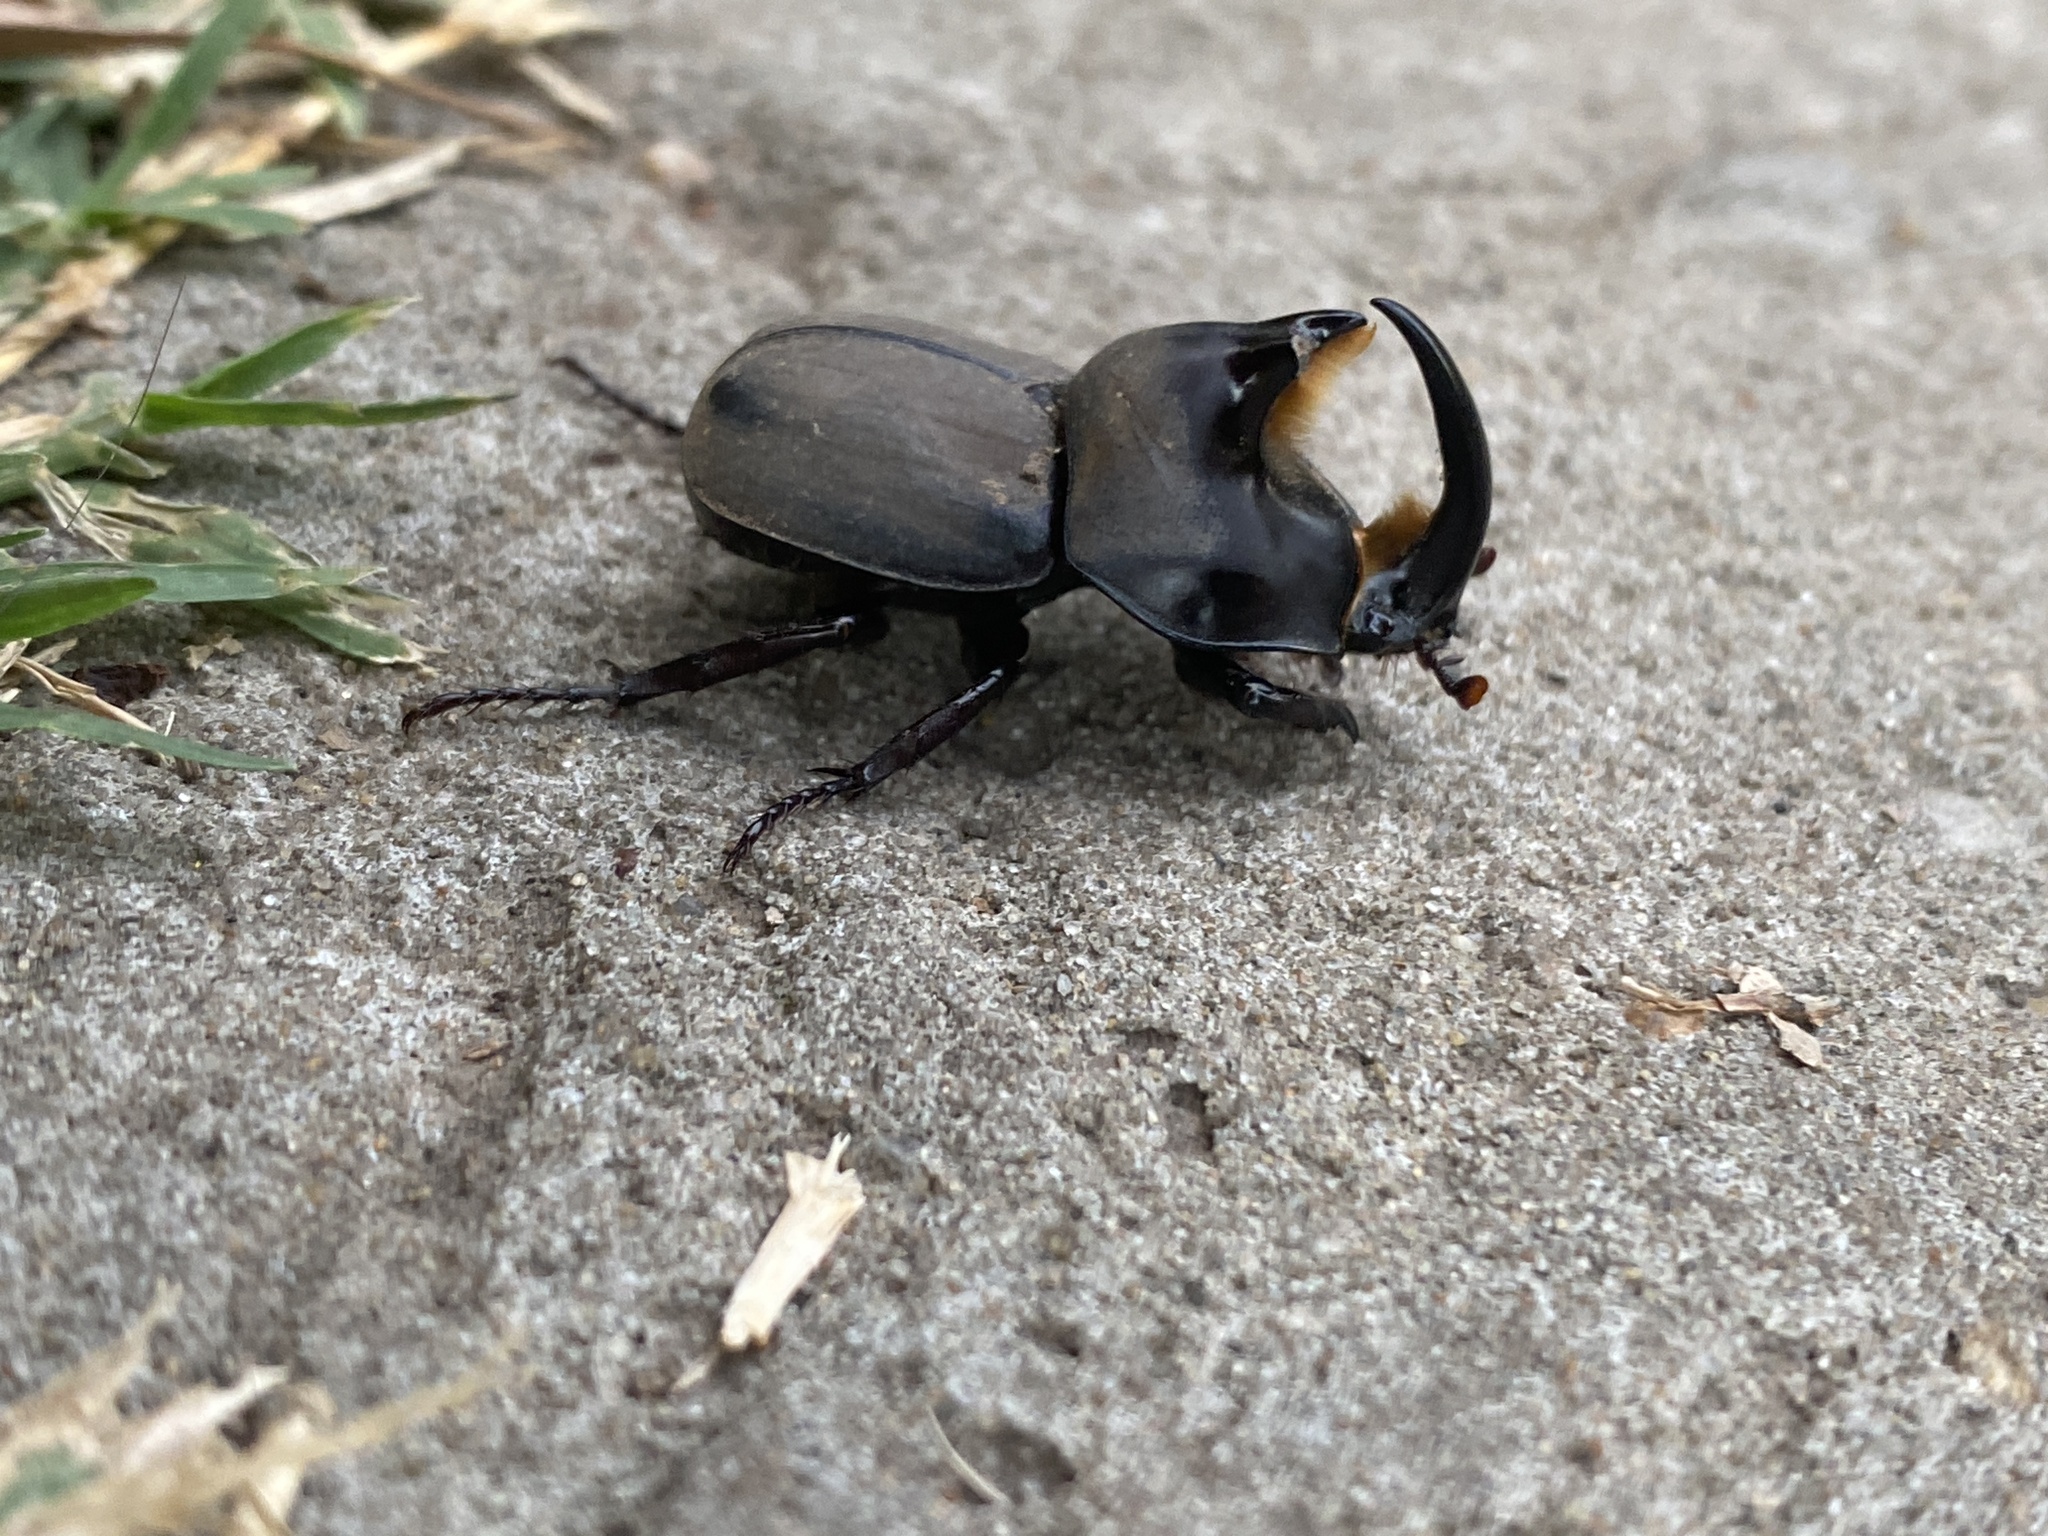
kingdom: Animalia
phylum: Arthropoda
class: Insecta
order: Coleoptera
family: Scarabaeidae
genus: Diloboderus
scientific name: Diloboderus abderus
